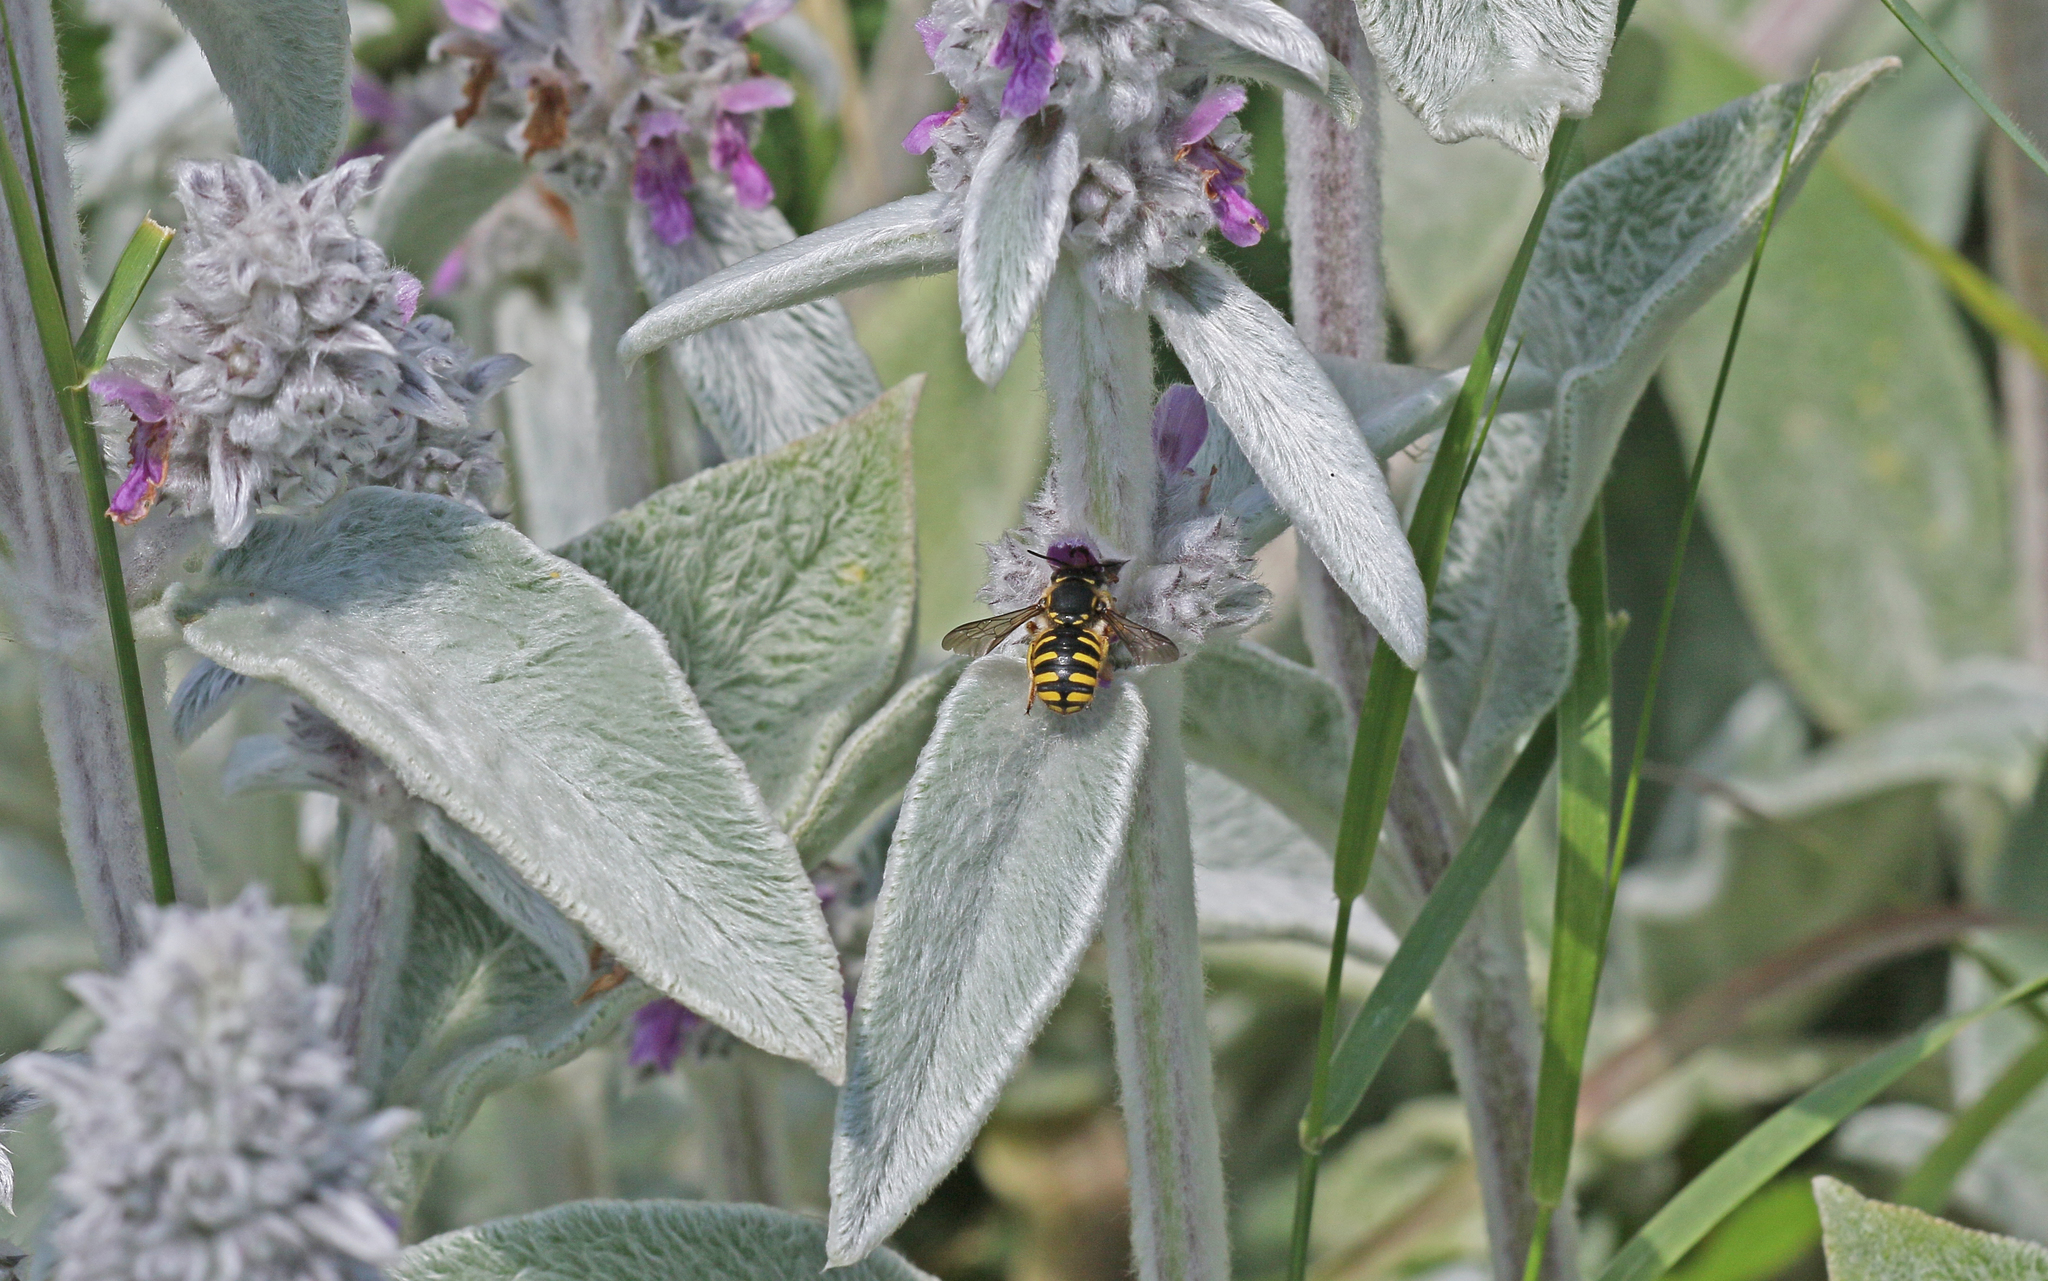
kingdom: Animalia
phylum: Arthropoda
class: Insecta
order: Hymenoptera
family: Megachilidae
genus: Anthidium
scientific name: Anthidium manicatum
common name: Wool carder bee
